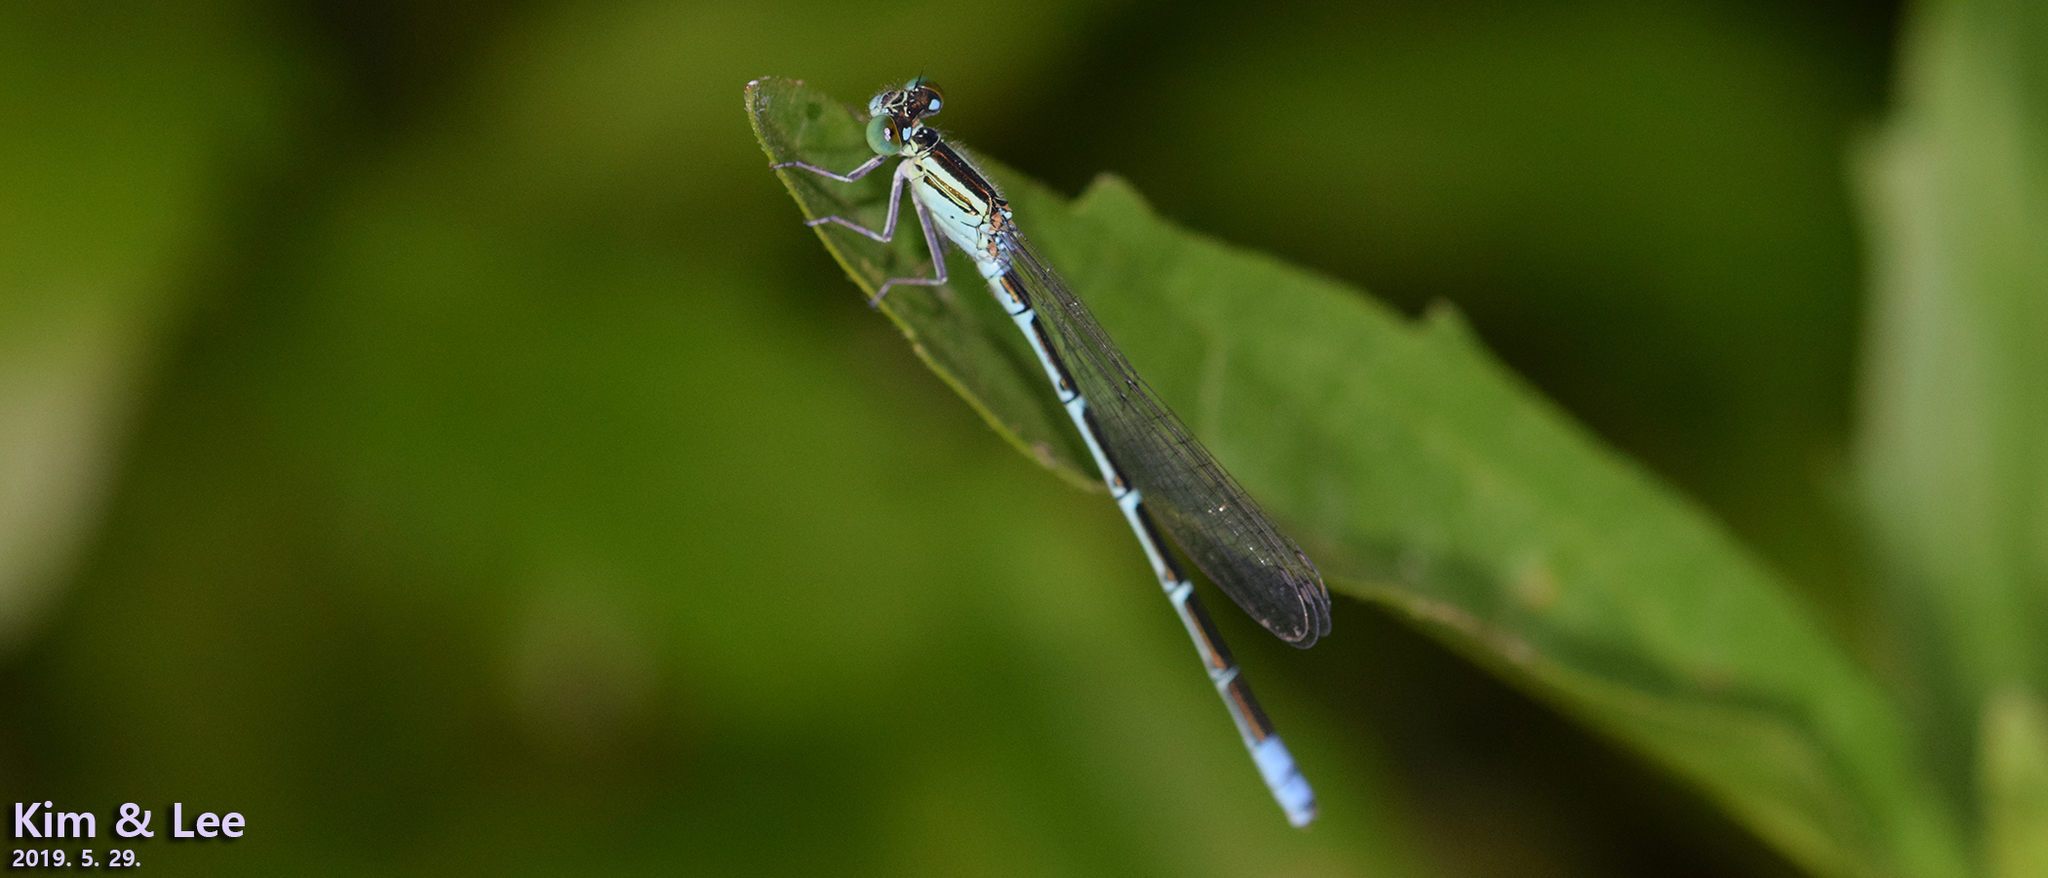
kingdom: Animalia
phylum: Arthropoda
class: Insecta
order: Odonata
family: Coenagrionidae
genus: Paracercion
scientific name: Paracercion hieroglyphicum
